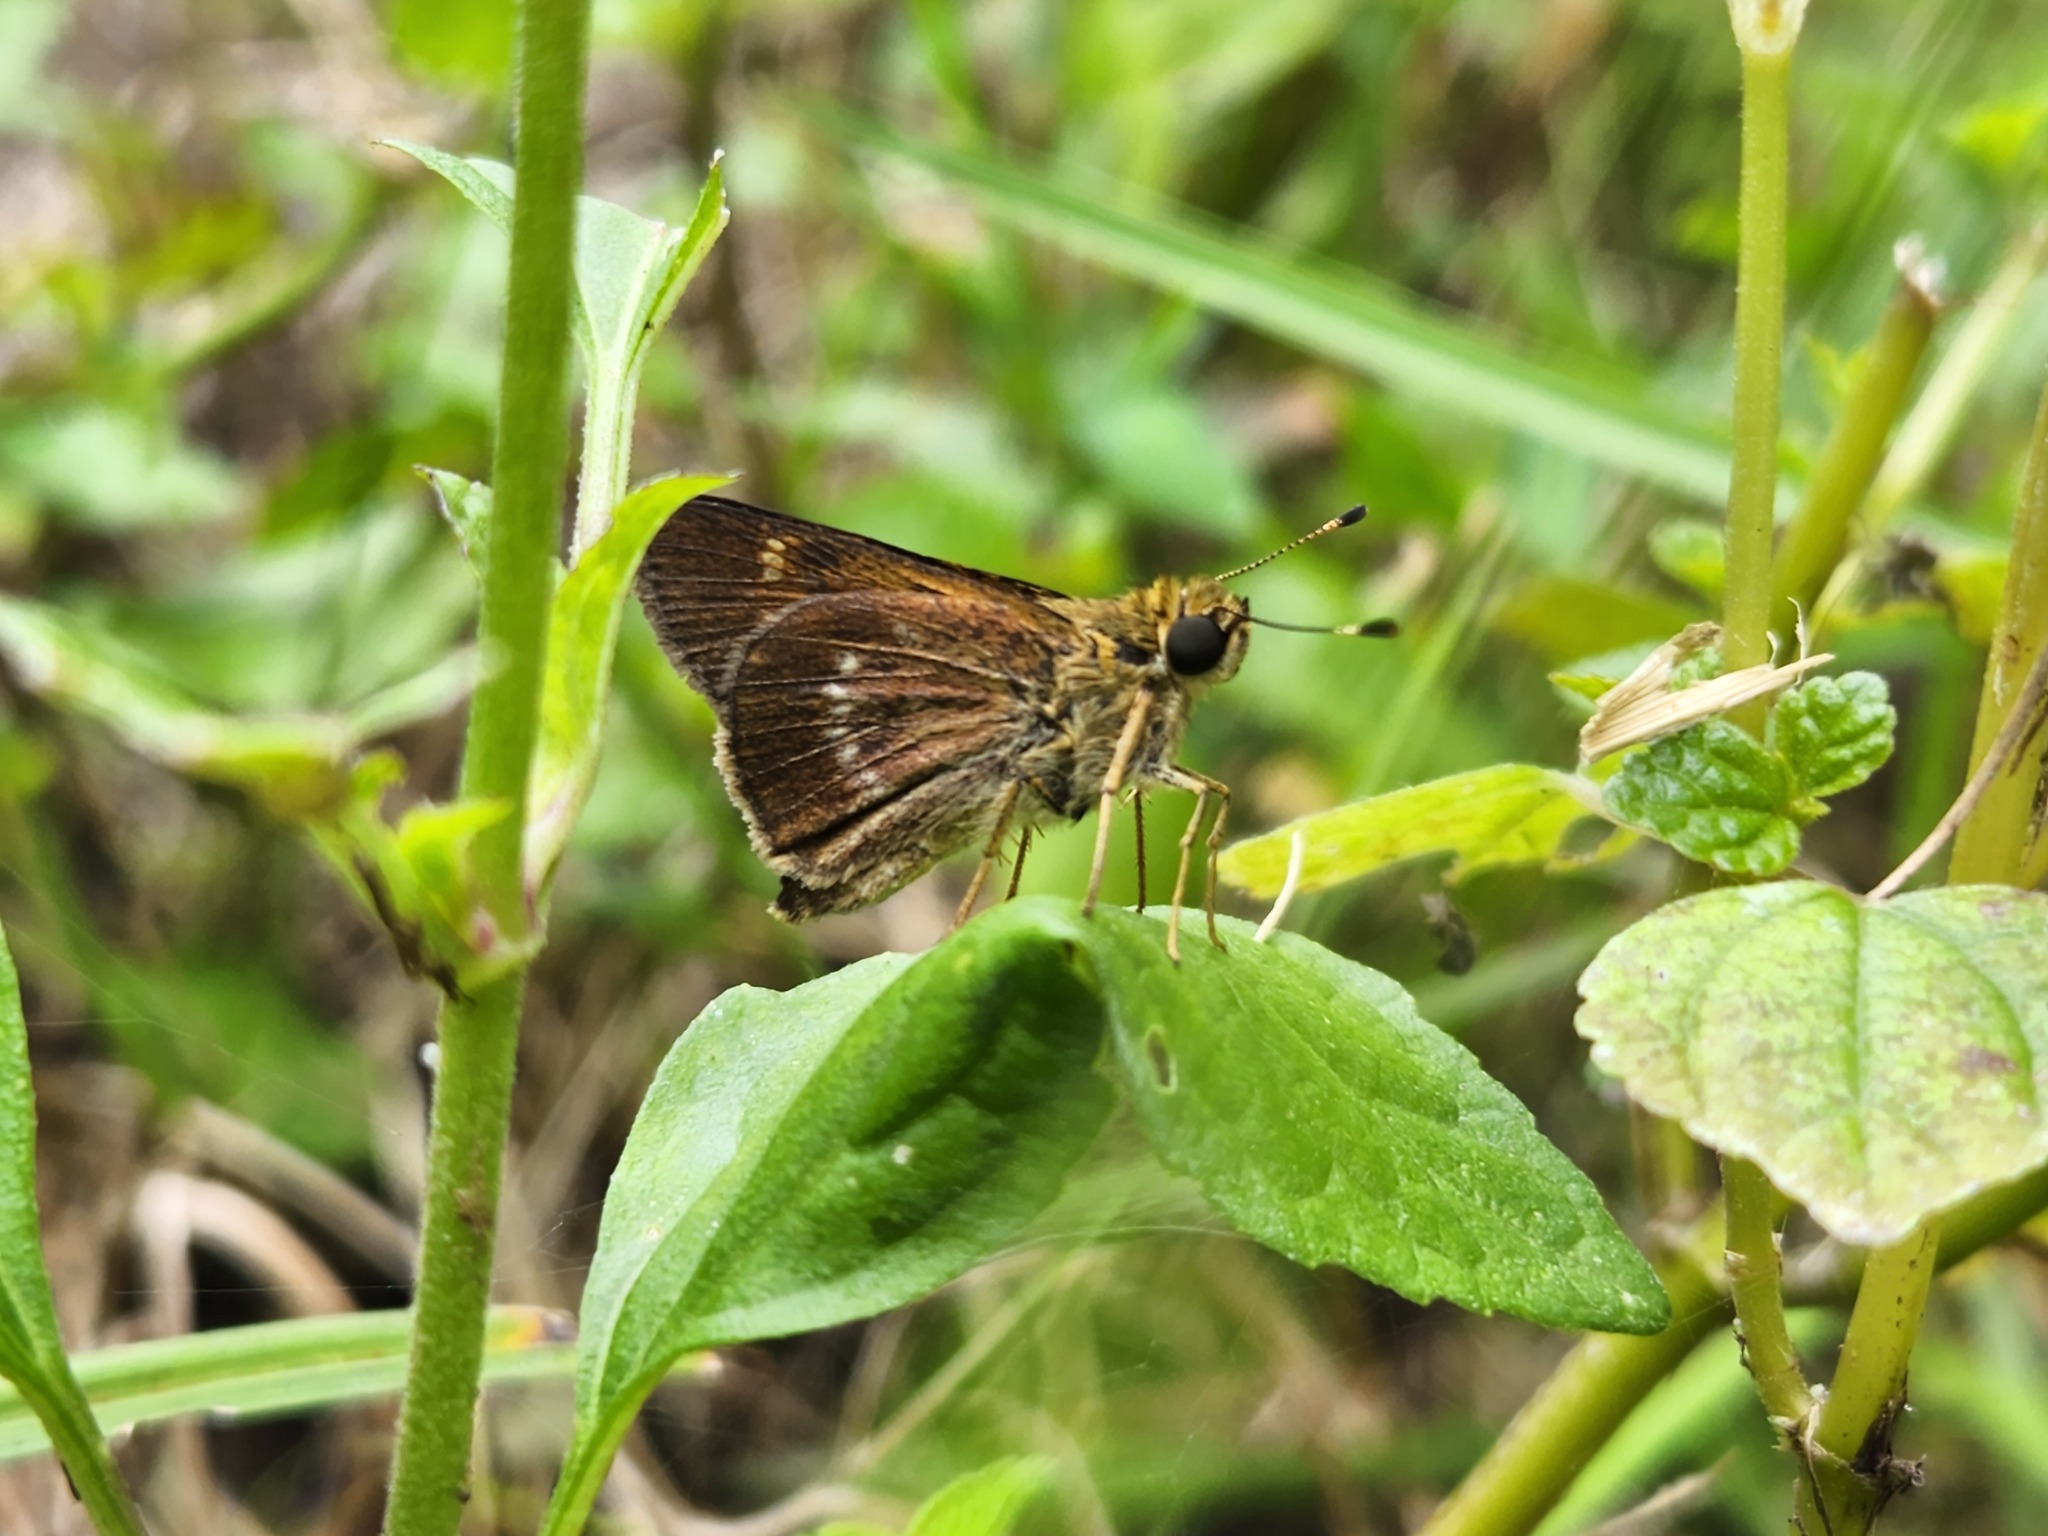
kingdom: Animalia
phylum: Arthropoda
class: Insecta
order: Lepidoptera
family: Hesperiidae
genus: Vernia
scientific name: Vernia verna
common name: Little glassywing
